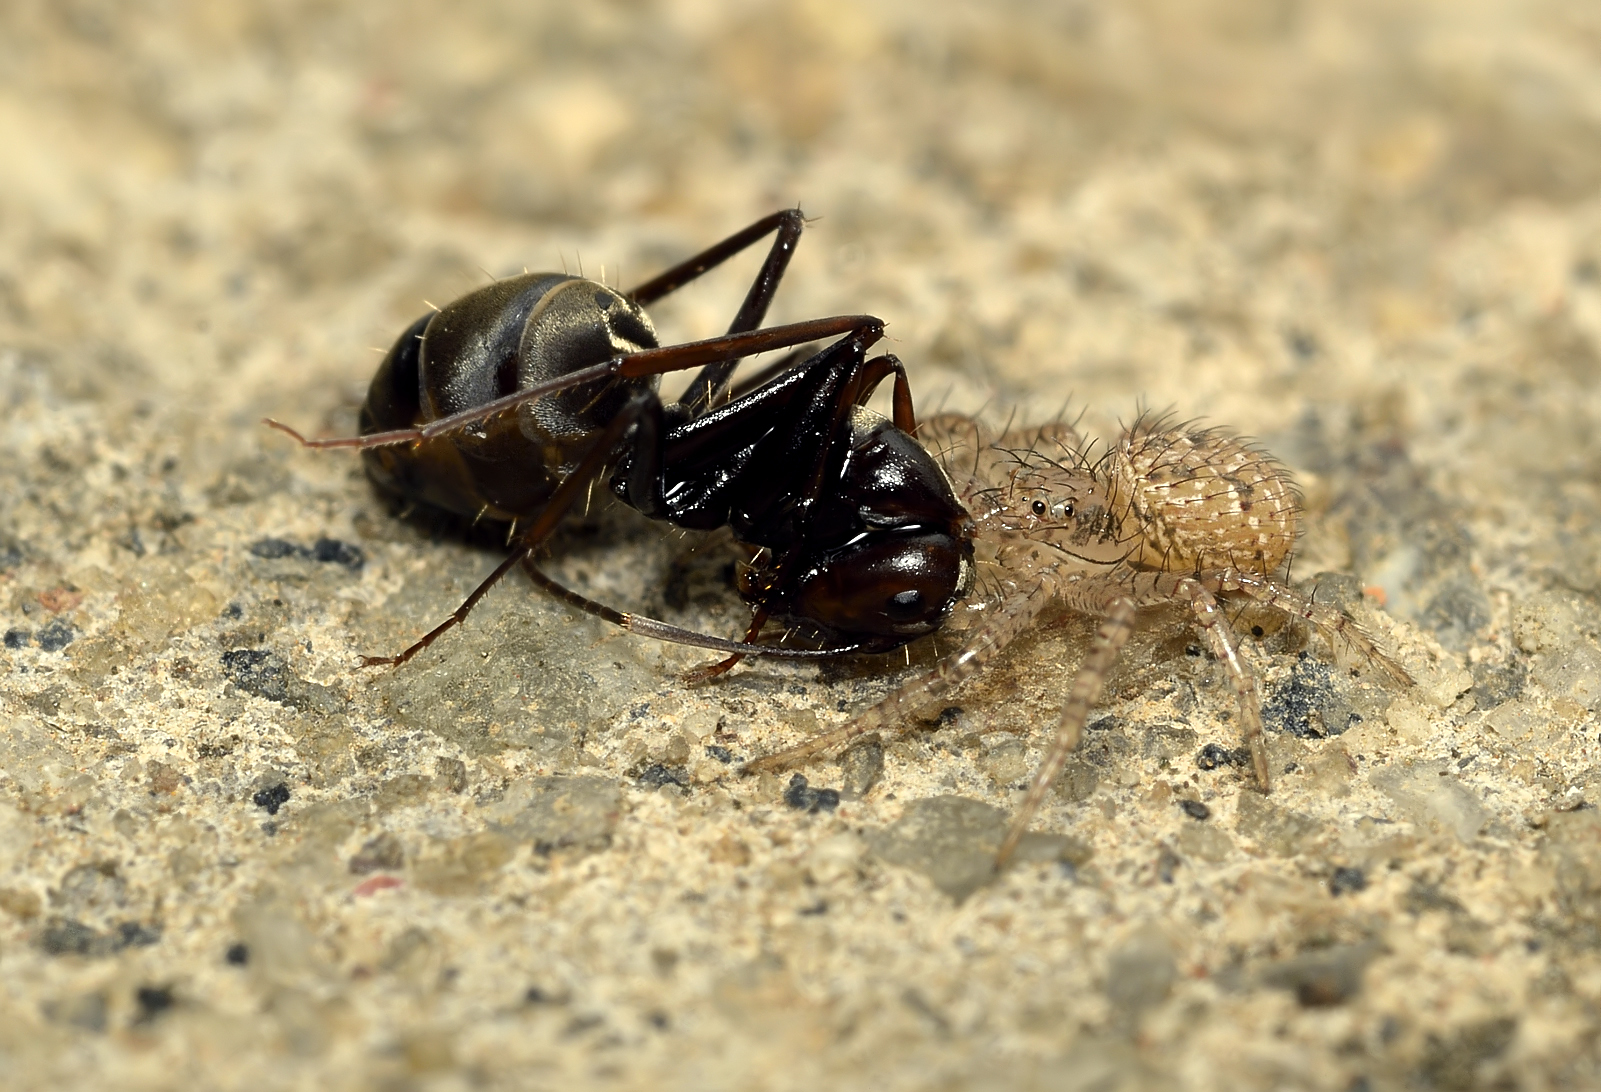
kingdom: Animalia
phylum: Arthropoda
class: Arachnida
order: Araneae
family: Thomisidae
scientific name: Thomisidae
